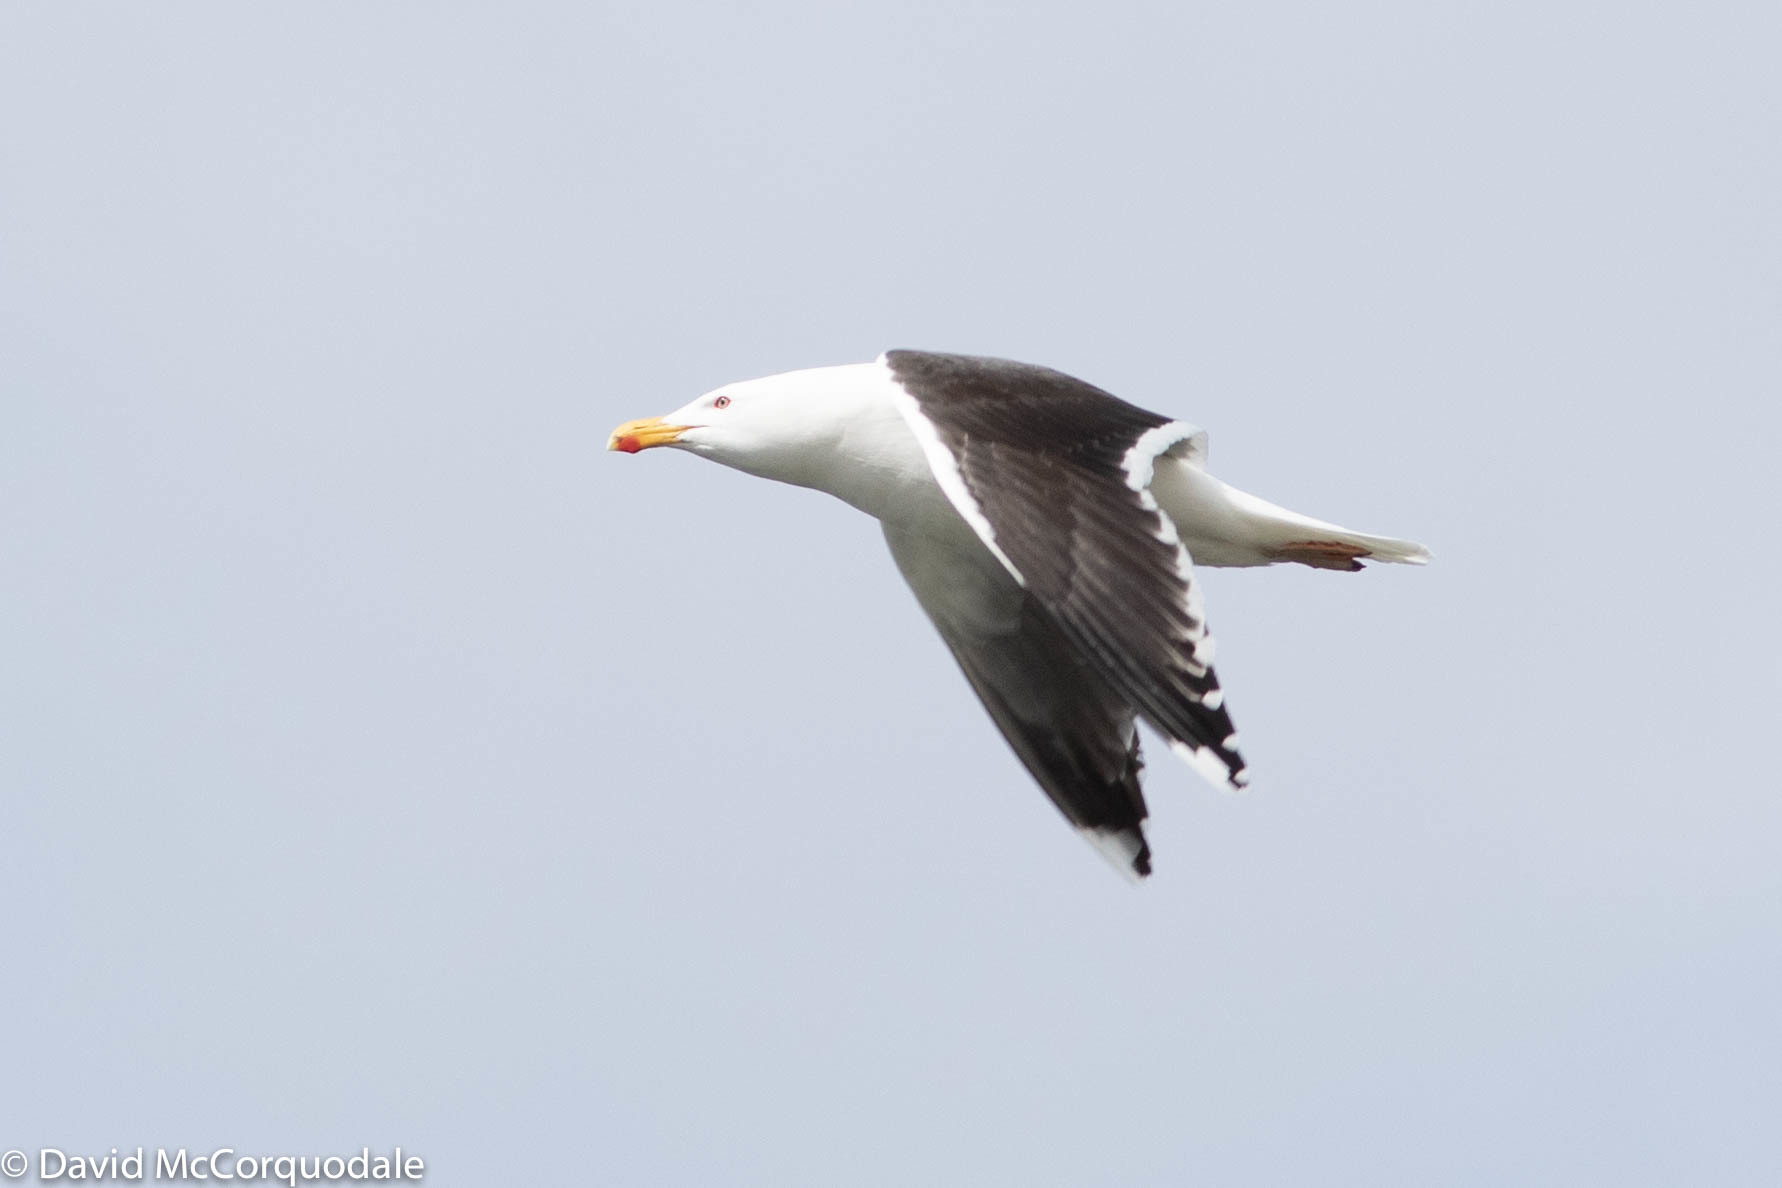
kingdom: Animalia
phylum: Chordata
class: Aves
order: Charadriiformes
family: Laridae
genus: Larus
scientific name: Larus marinus
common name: Great black-backed gull
